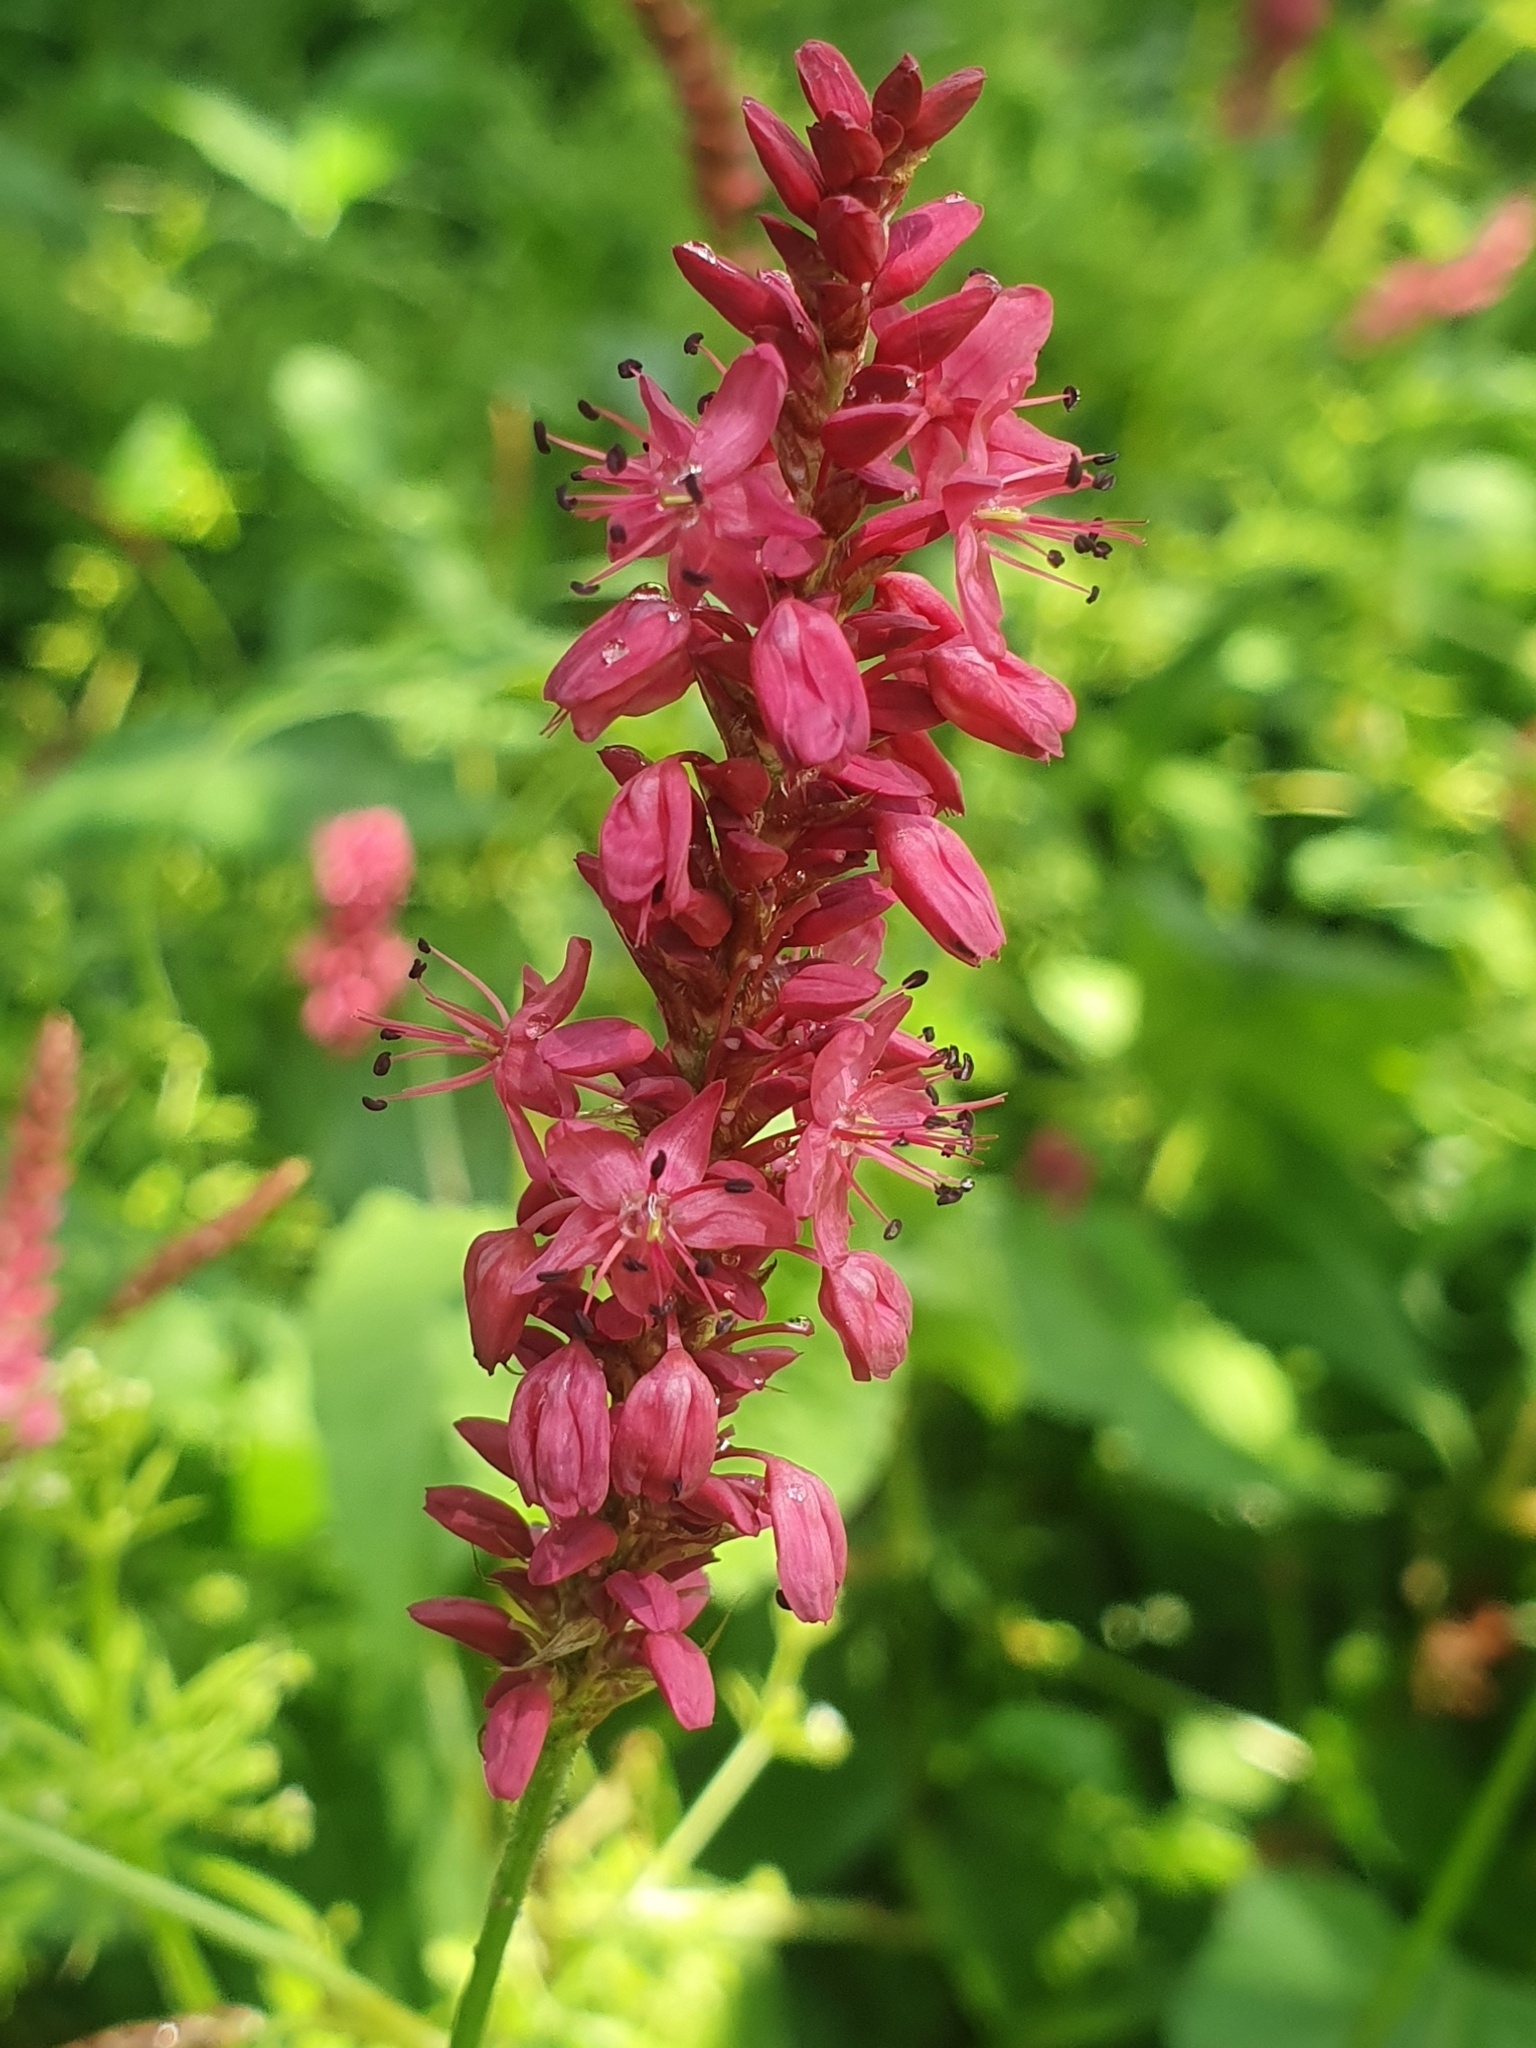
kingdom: Plantae
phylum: Tracheophyta
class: Magnoliopsida
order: Caryophyllales
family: Polygonaceae
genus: Bistorta
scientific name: Bistorta amplexicaulis
